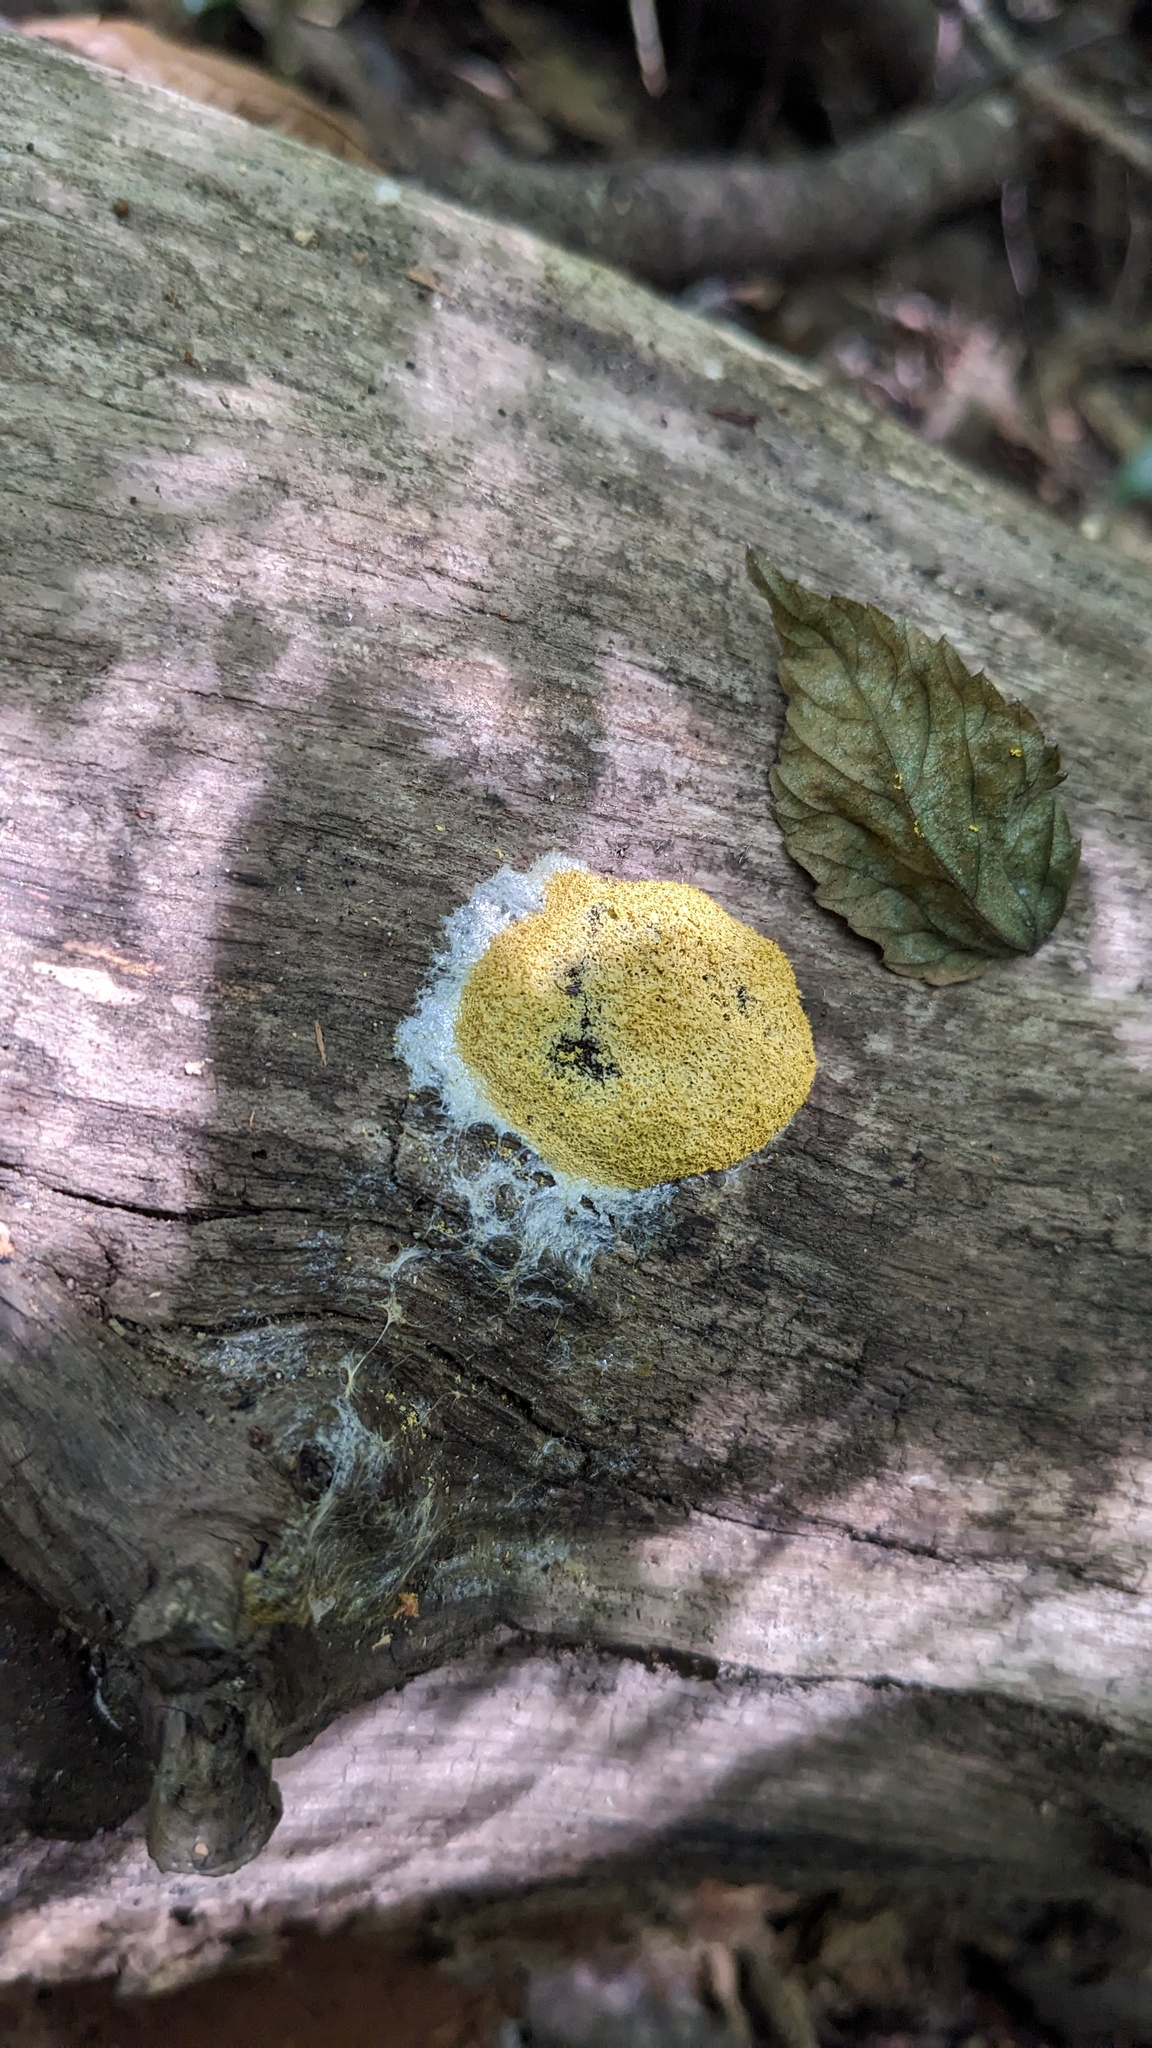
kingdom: Protozoa
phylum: Mycetozoa
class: Myxomycetes
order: Physarales
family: Physaraceae
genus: Fuligo
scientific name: Fuligo septica
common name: Dog vomit slime mold
